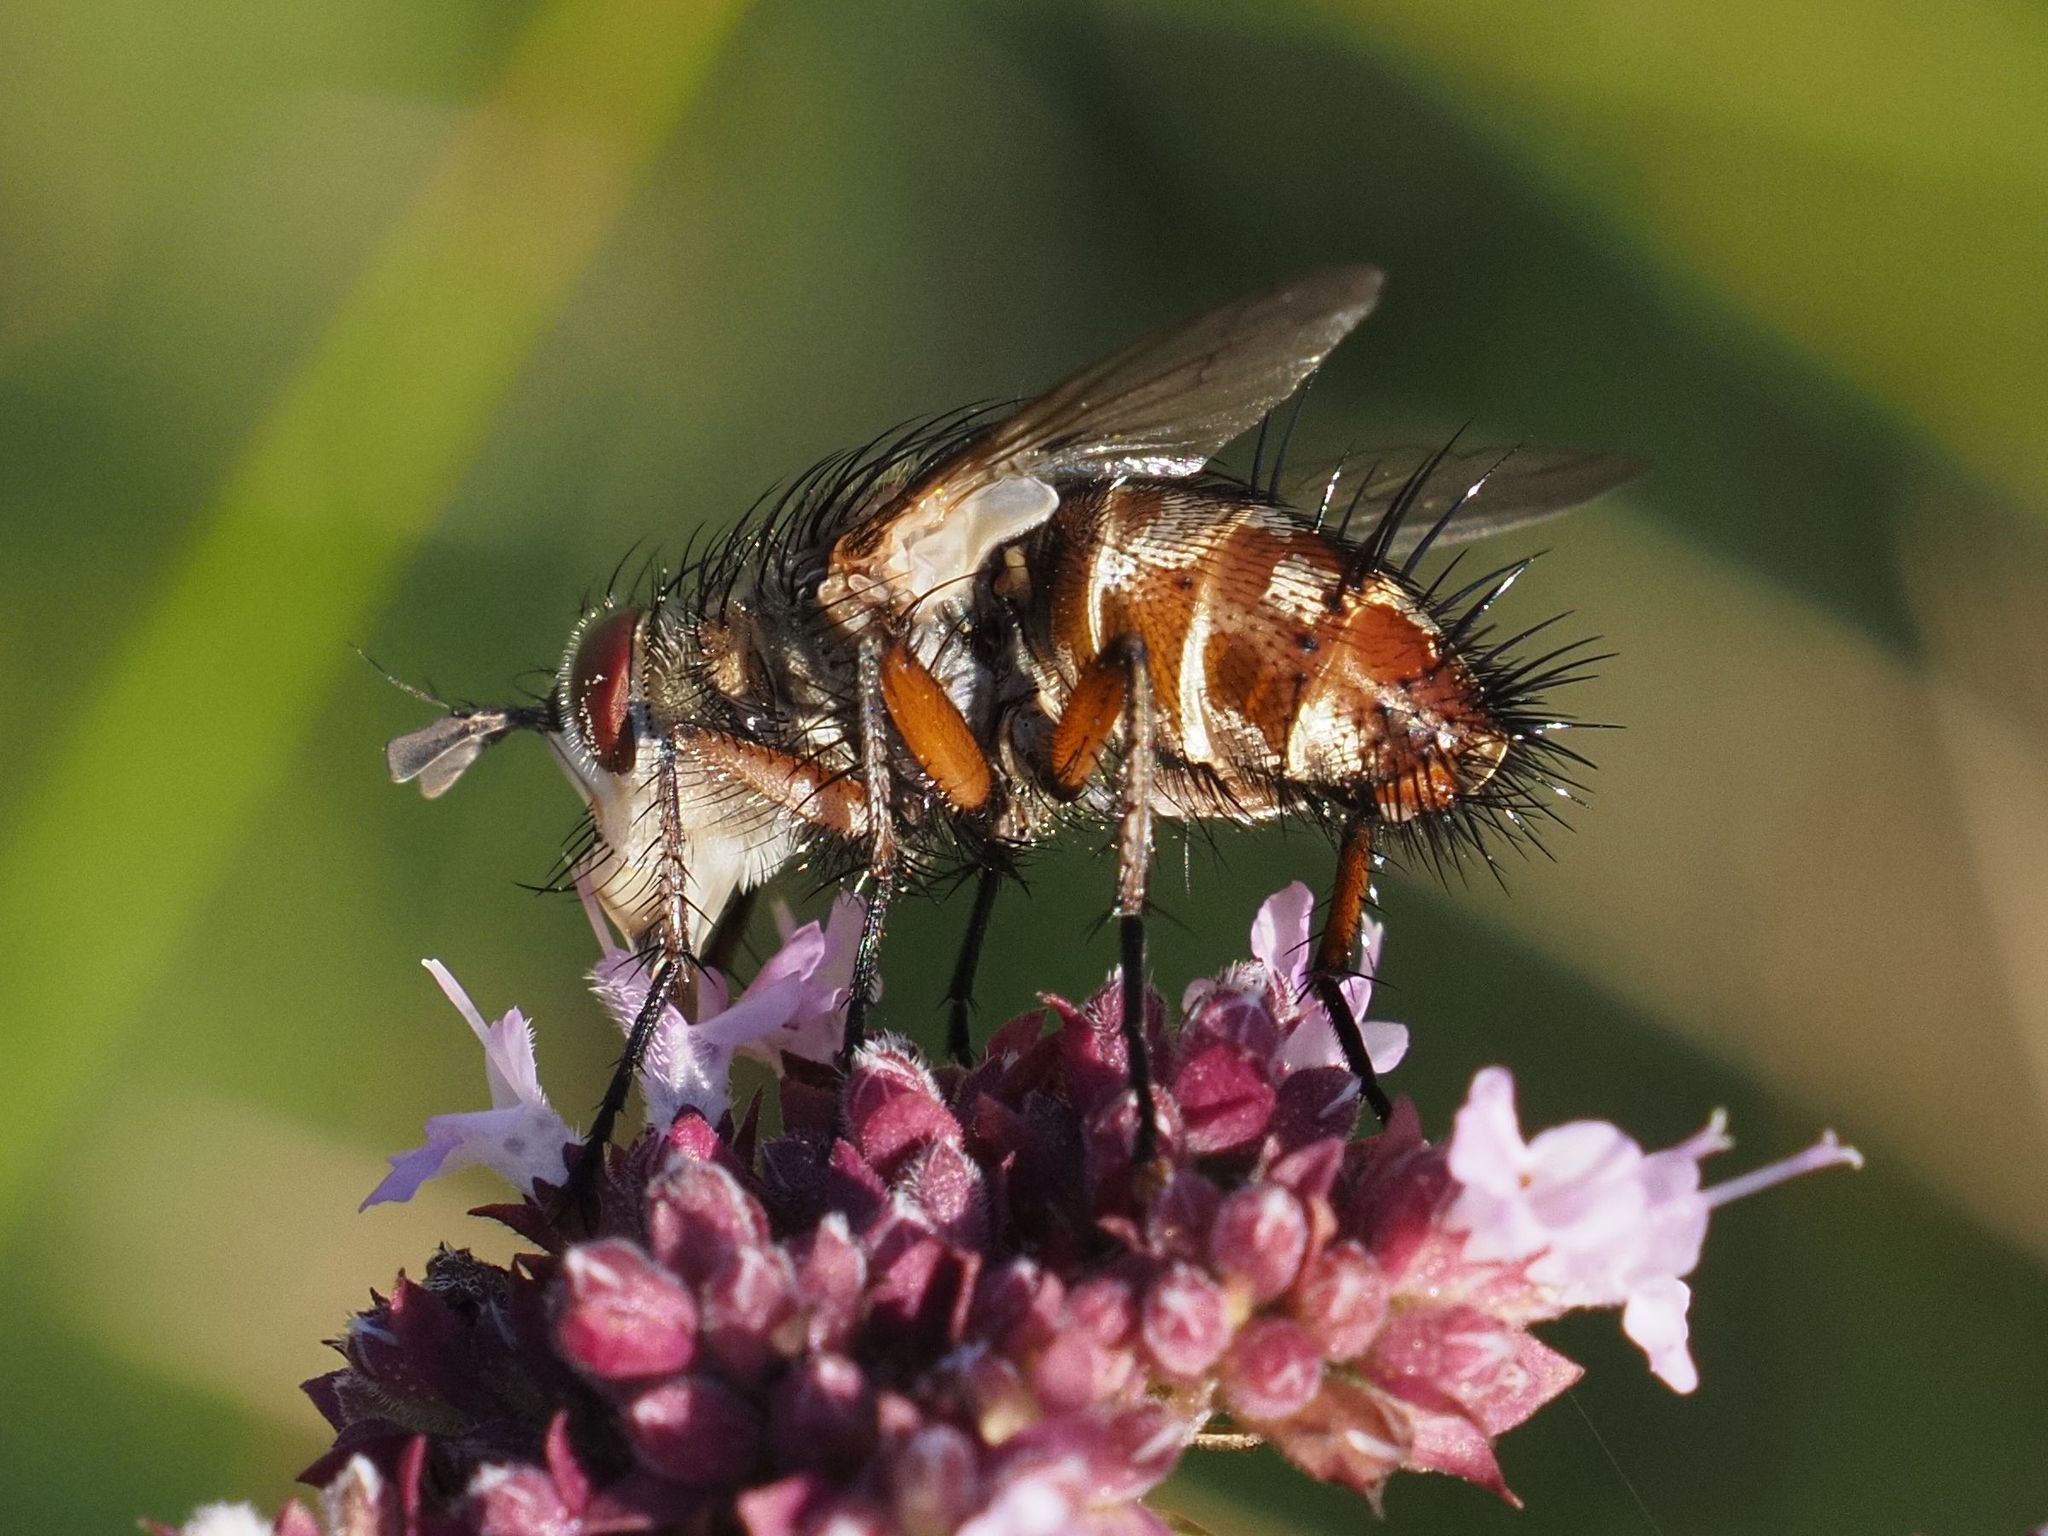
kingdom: Animalia
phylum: Arthropoda
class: Insecta
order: Diptera
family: Tachinidae
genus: Linnaemya
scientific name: Linnaemya vulpina
